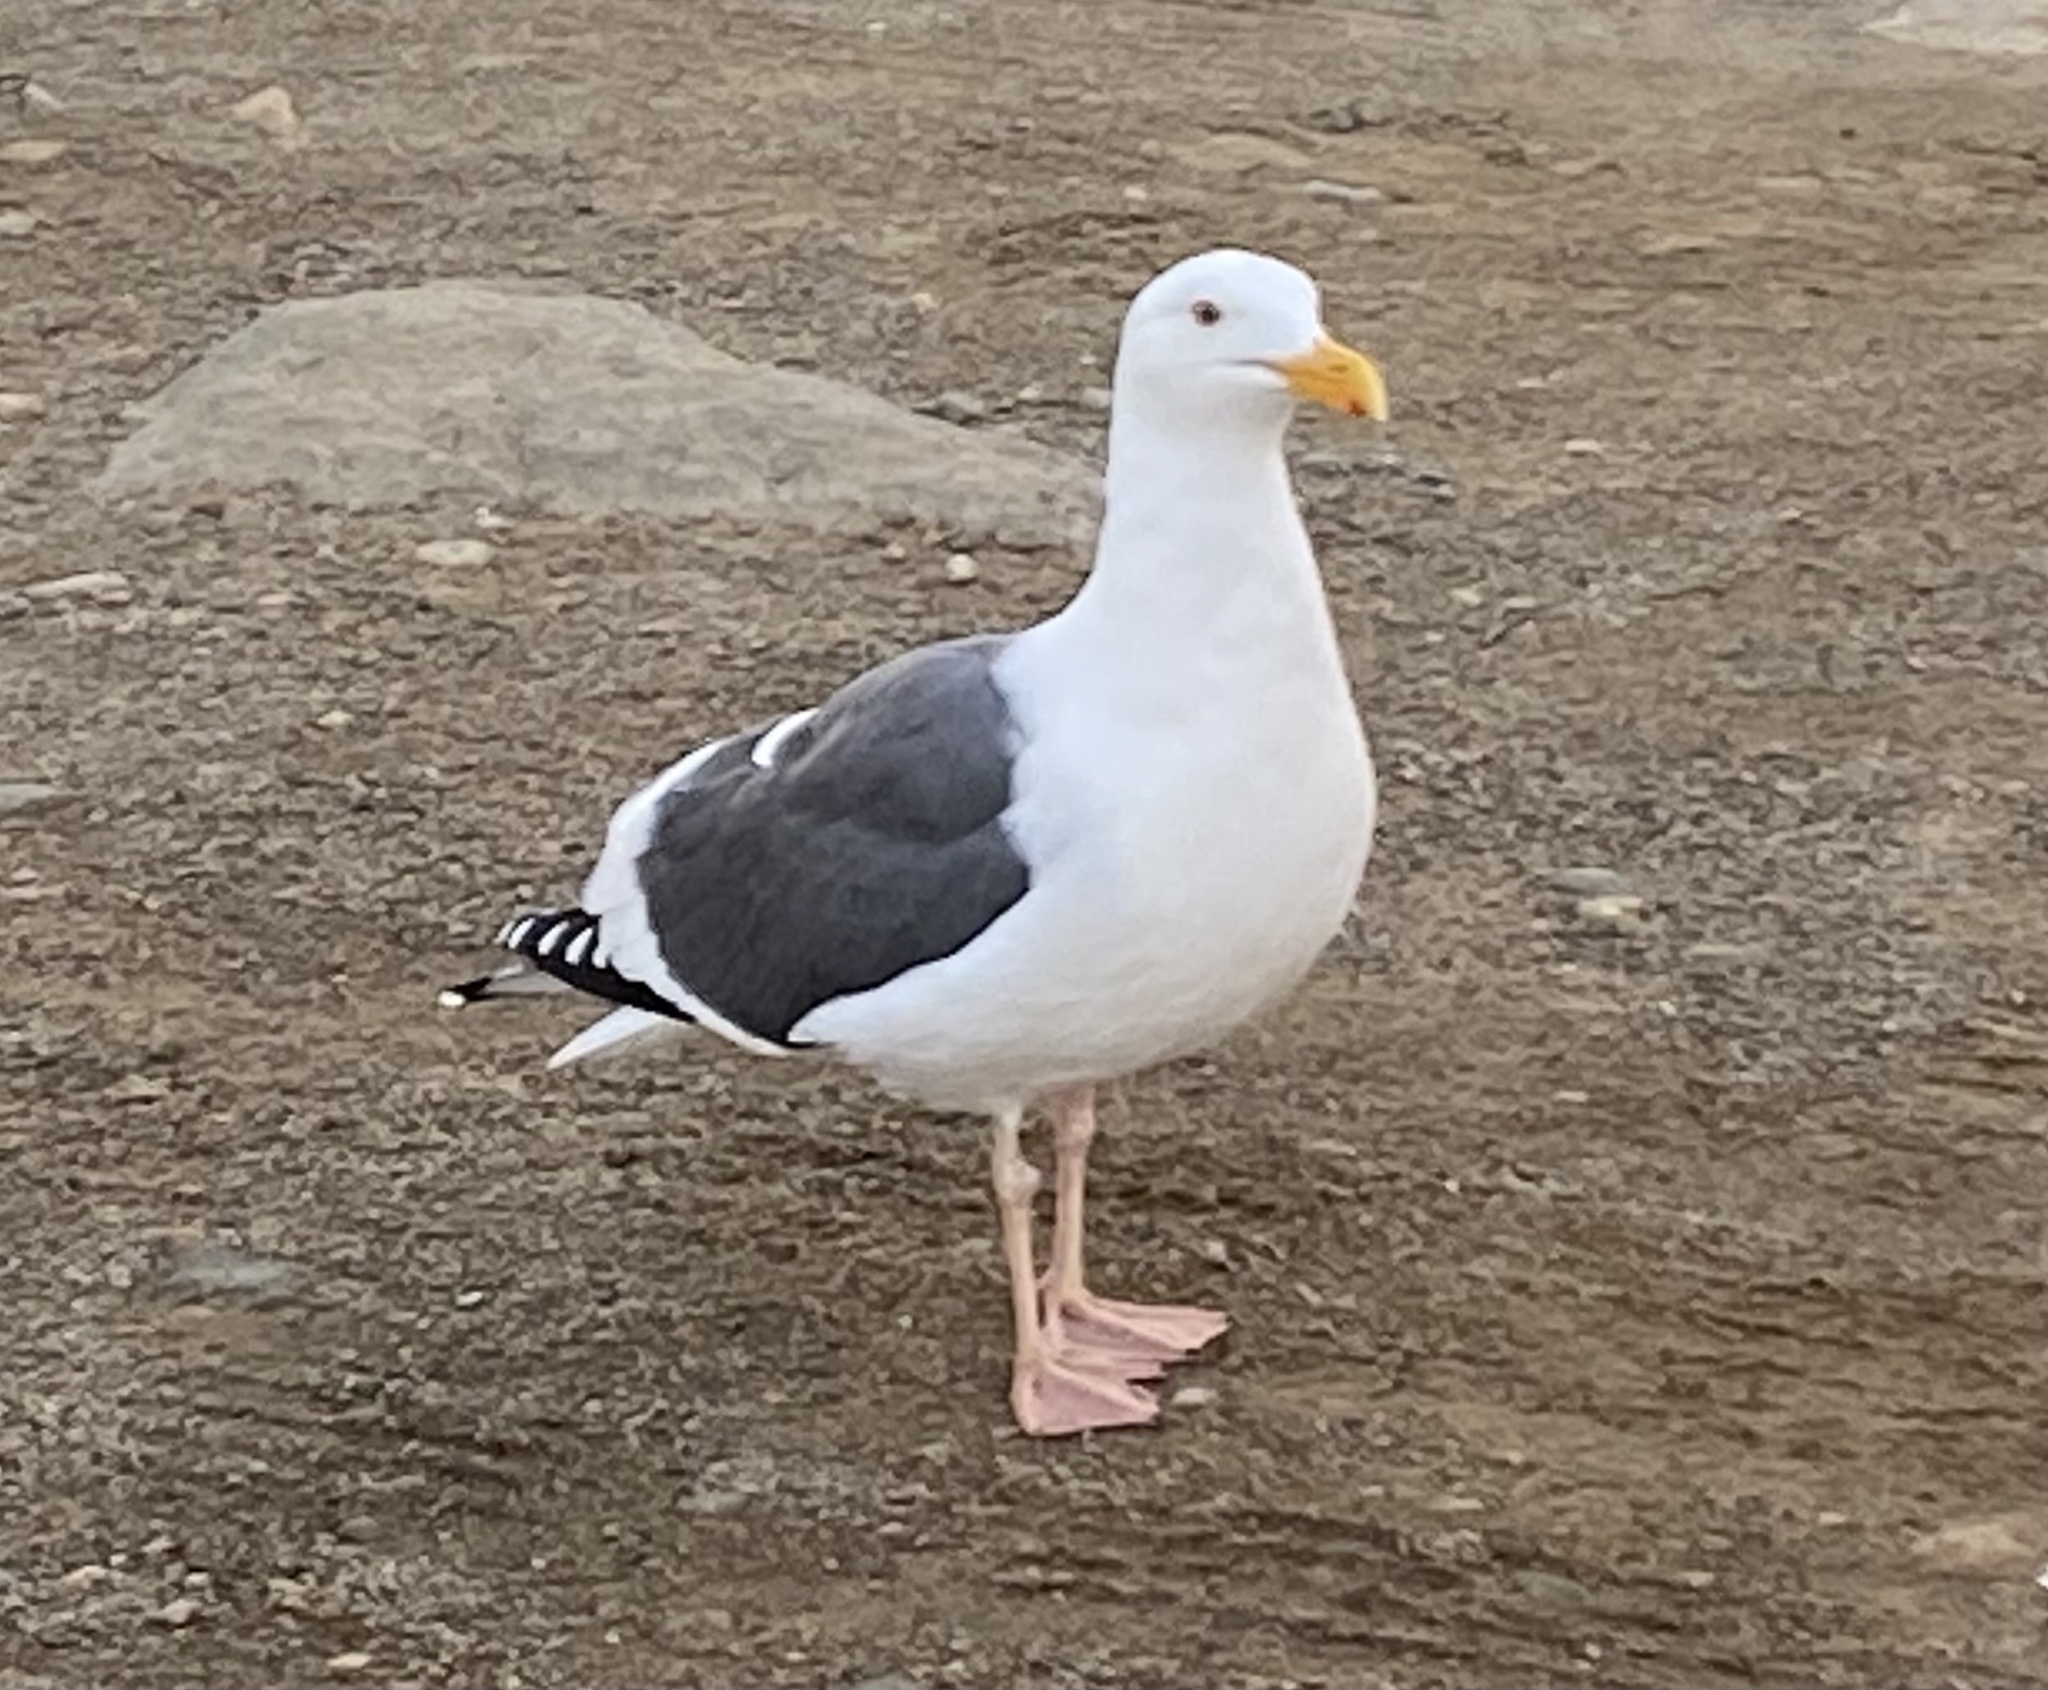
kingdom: Animalia
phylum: Chordata
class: Aves
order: Charadriiformes
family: Laridae
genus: Larus
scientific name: Larus occidentalis
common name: Western gull
